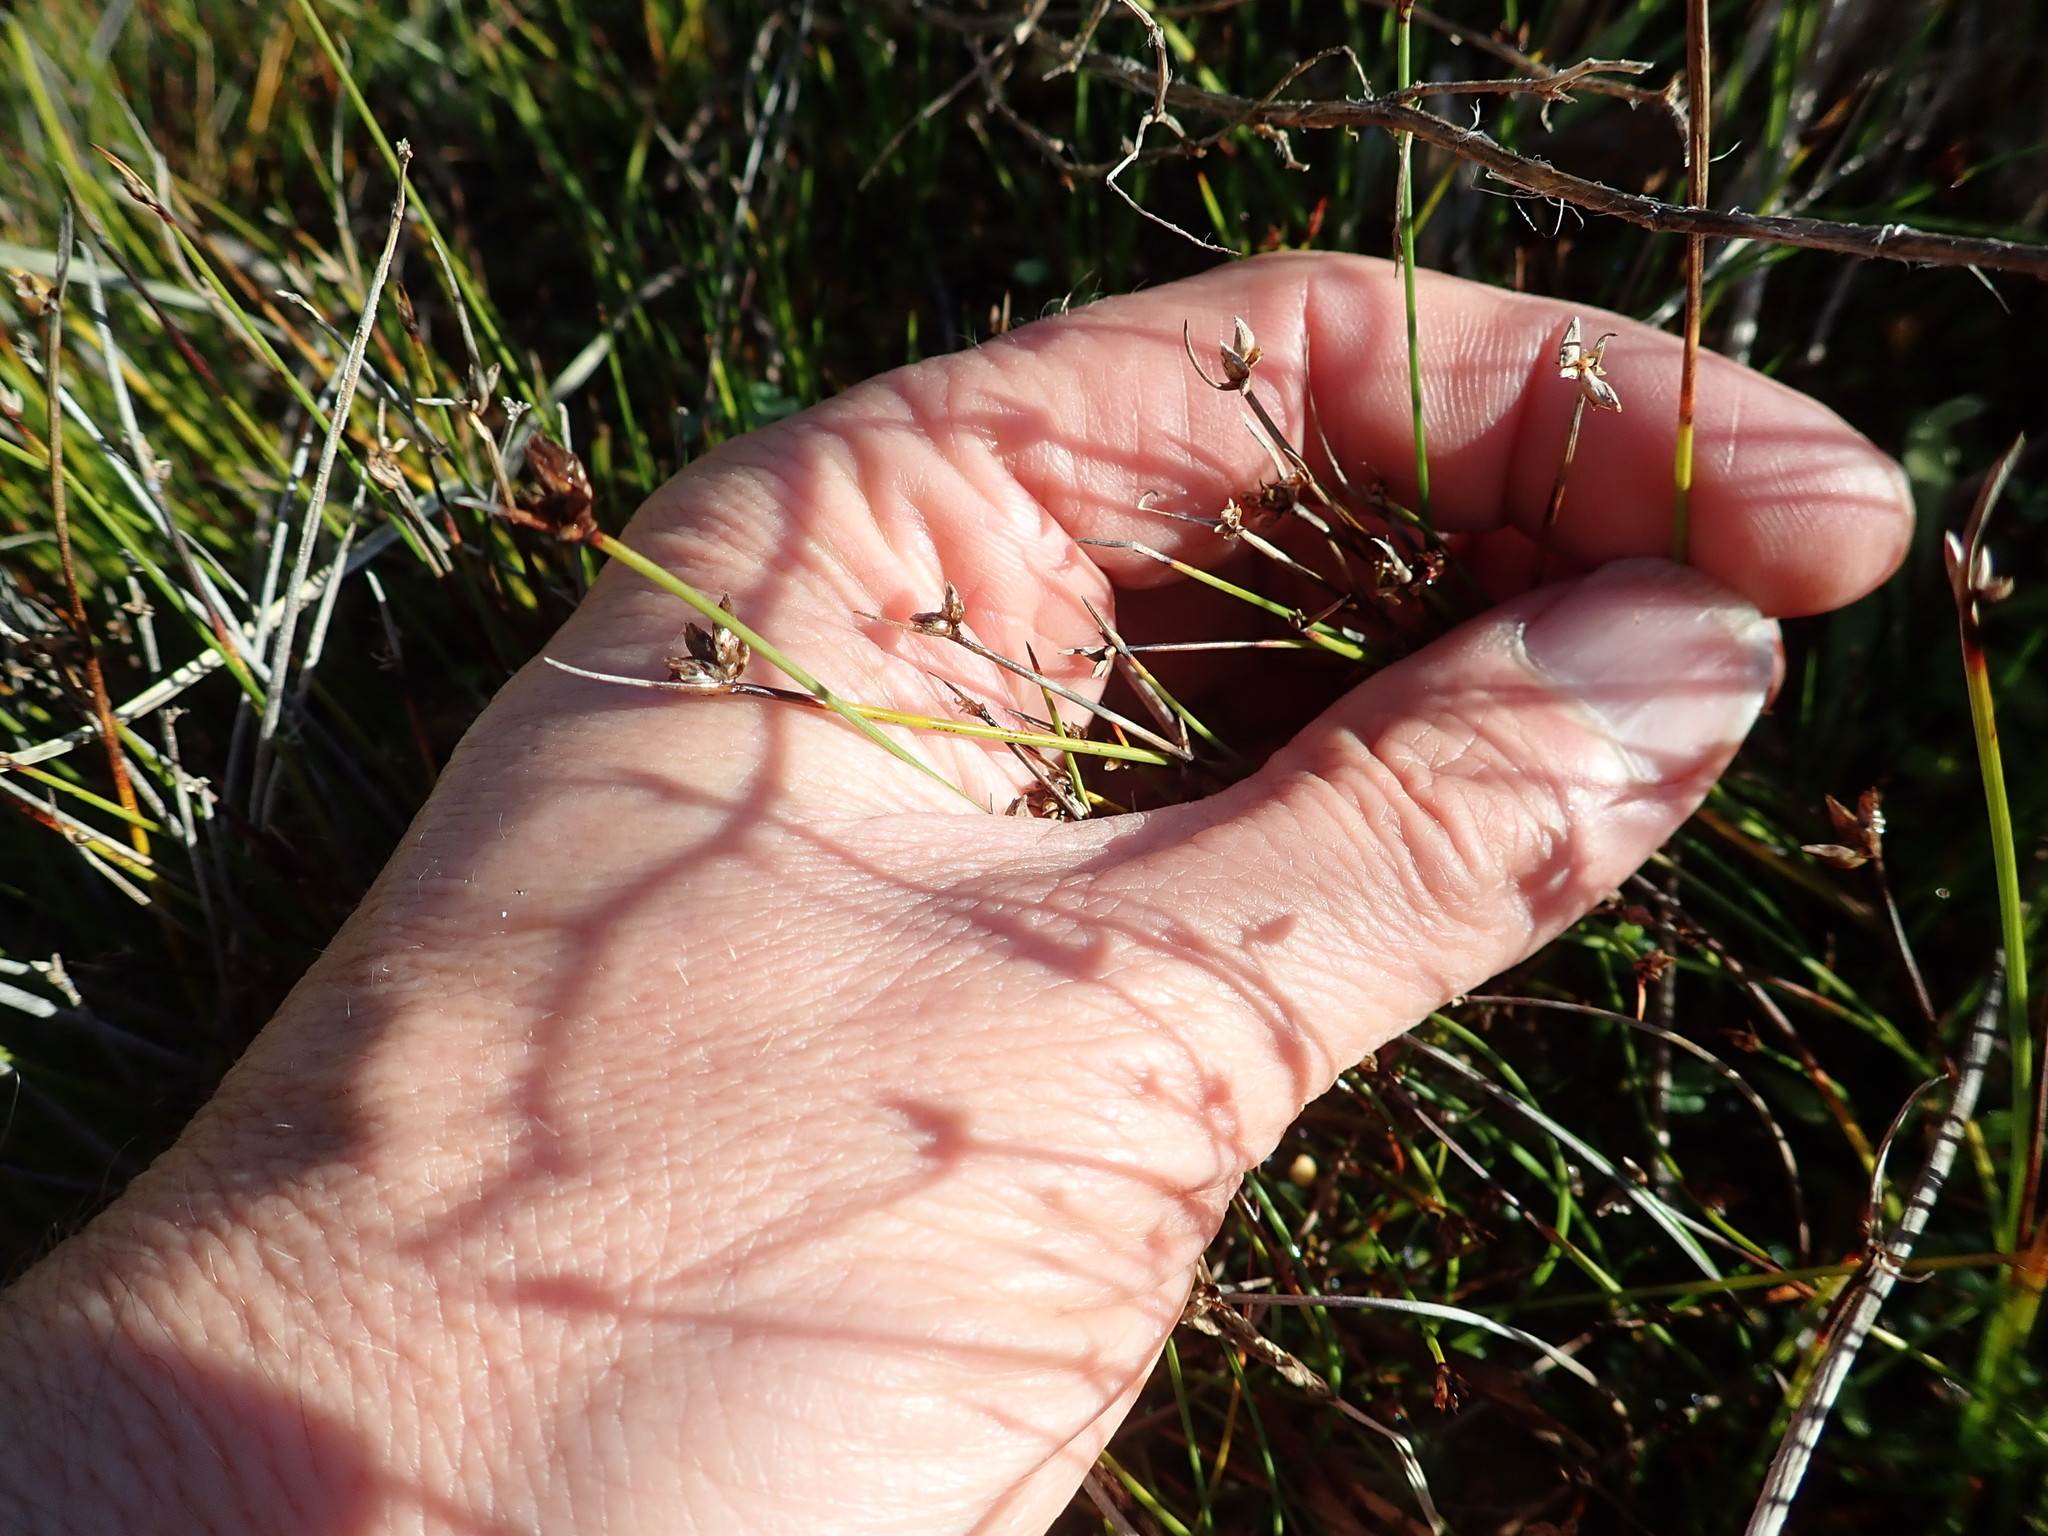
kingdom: Plantae
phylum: Tracheophyta
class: Liliopsida
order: Poales
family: Cyperaceae
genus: Schoenus
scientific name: Schoenus nitens
